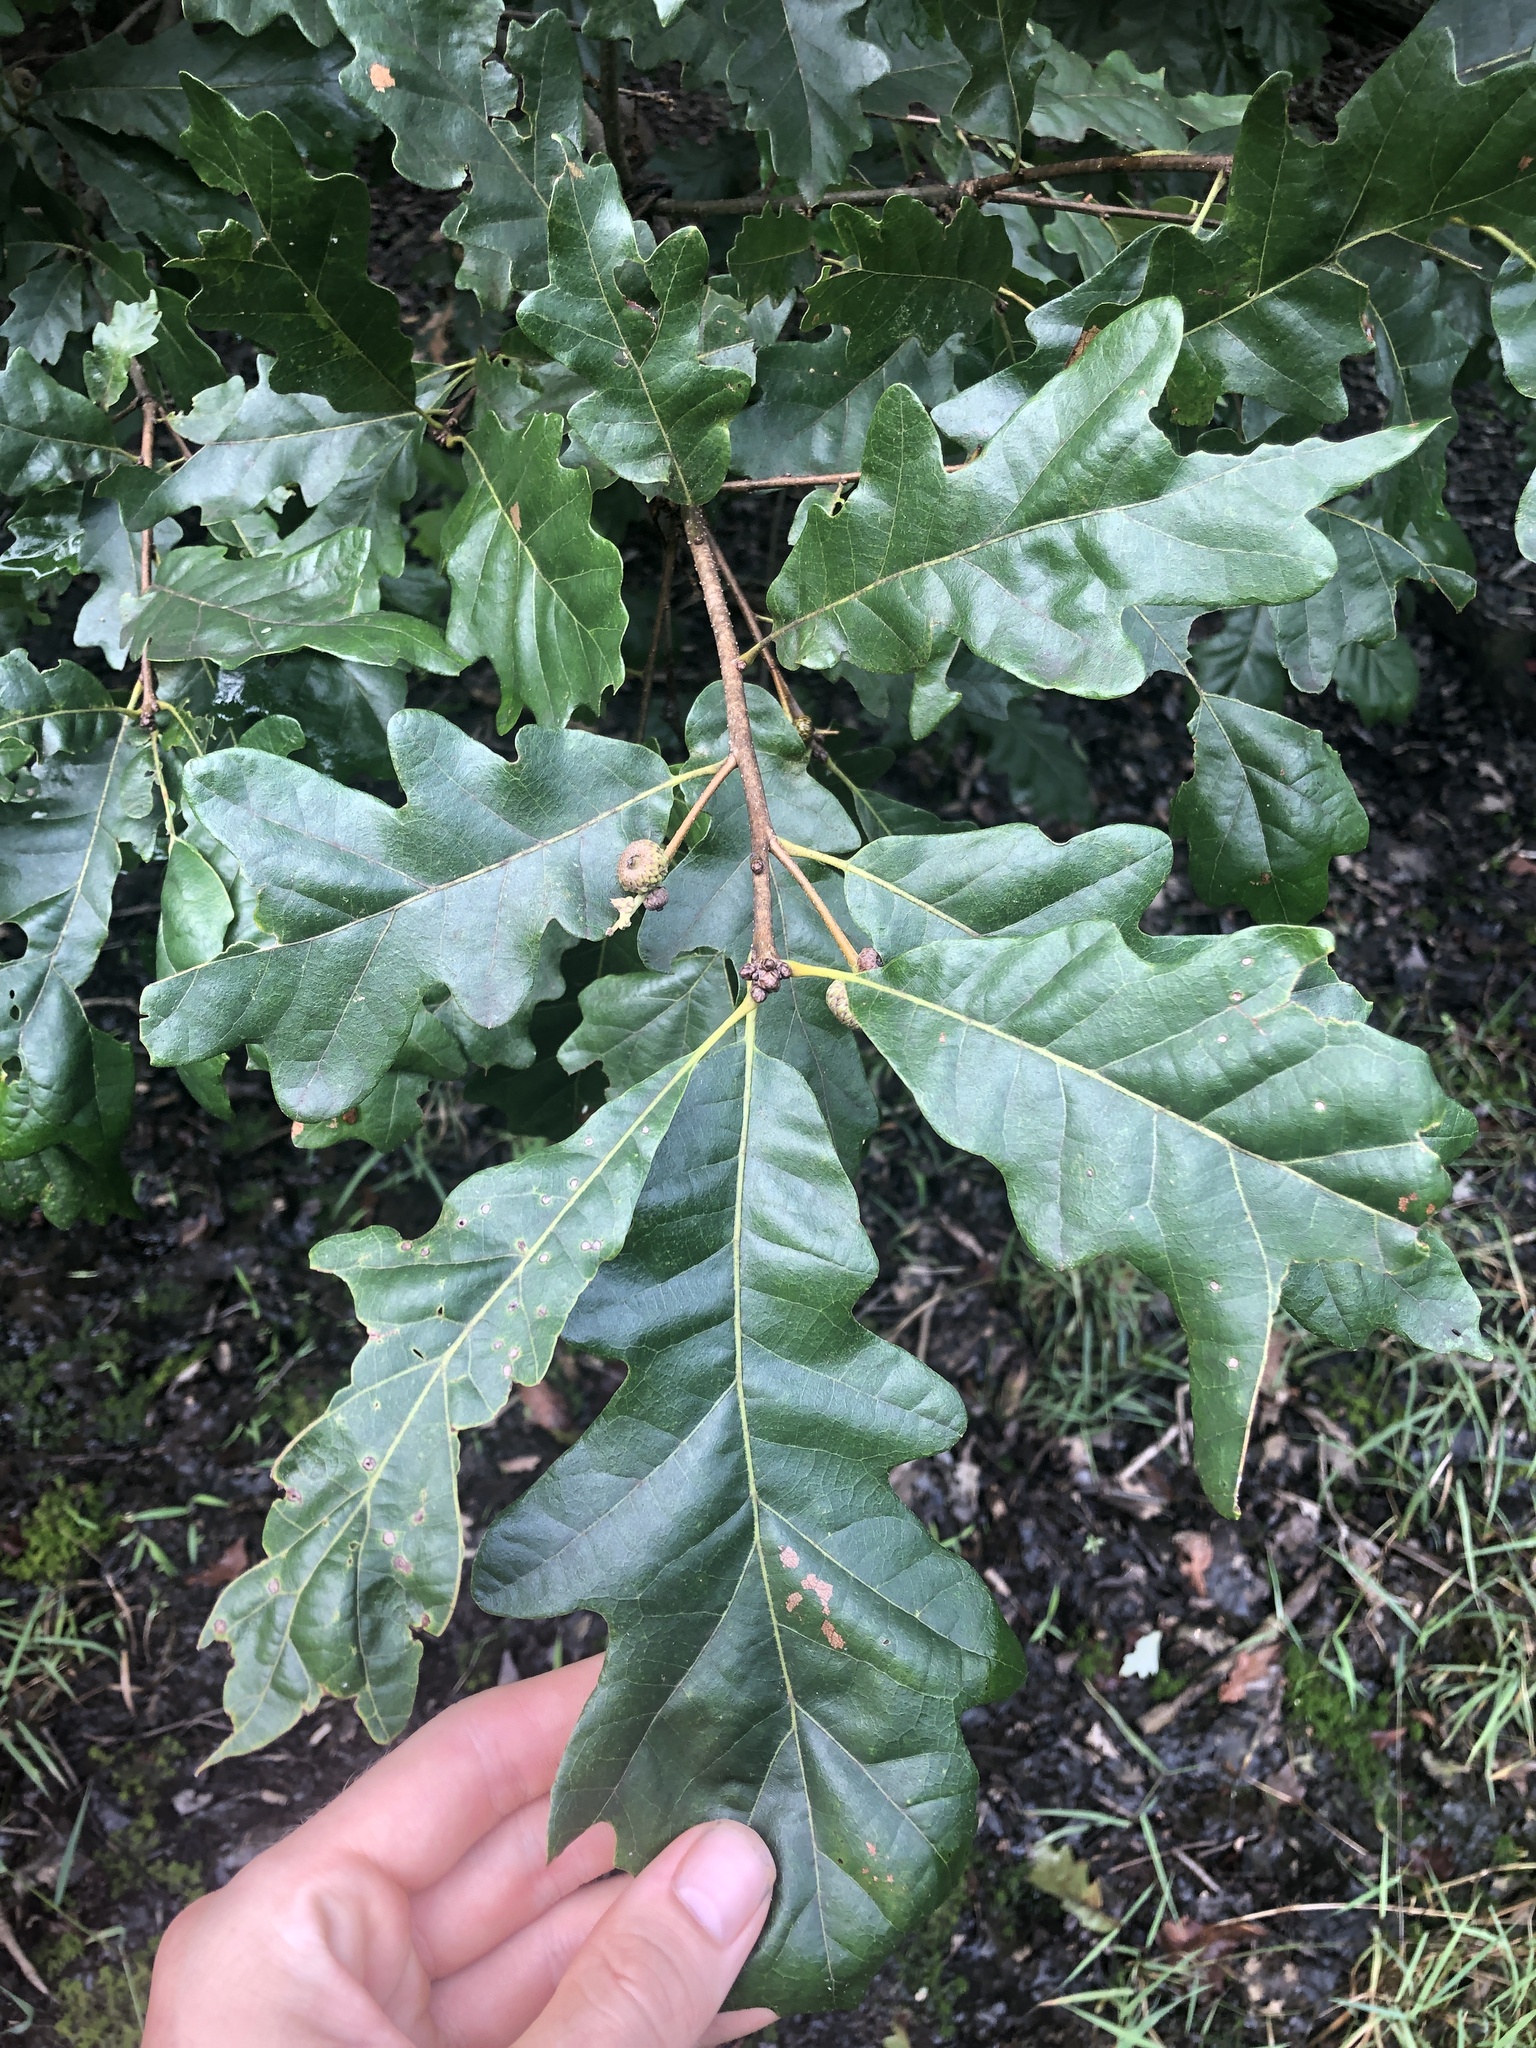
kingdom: Plantae
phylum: Tracheophyta
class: Magnoliopsida
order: Fagales
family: Fagaceae
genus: Quercus
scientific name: Quercus bicolor
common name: Swamp white oak
